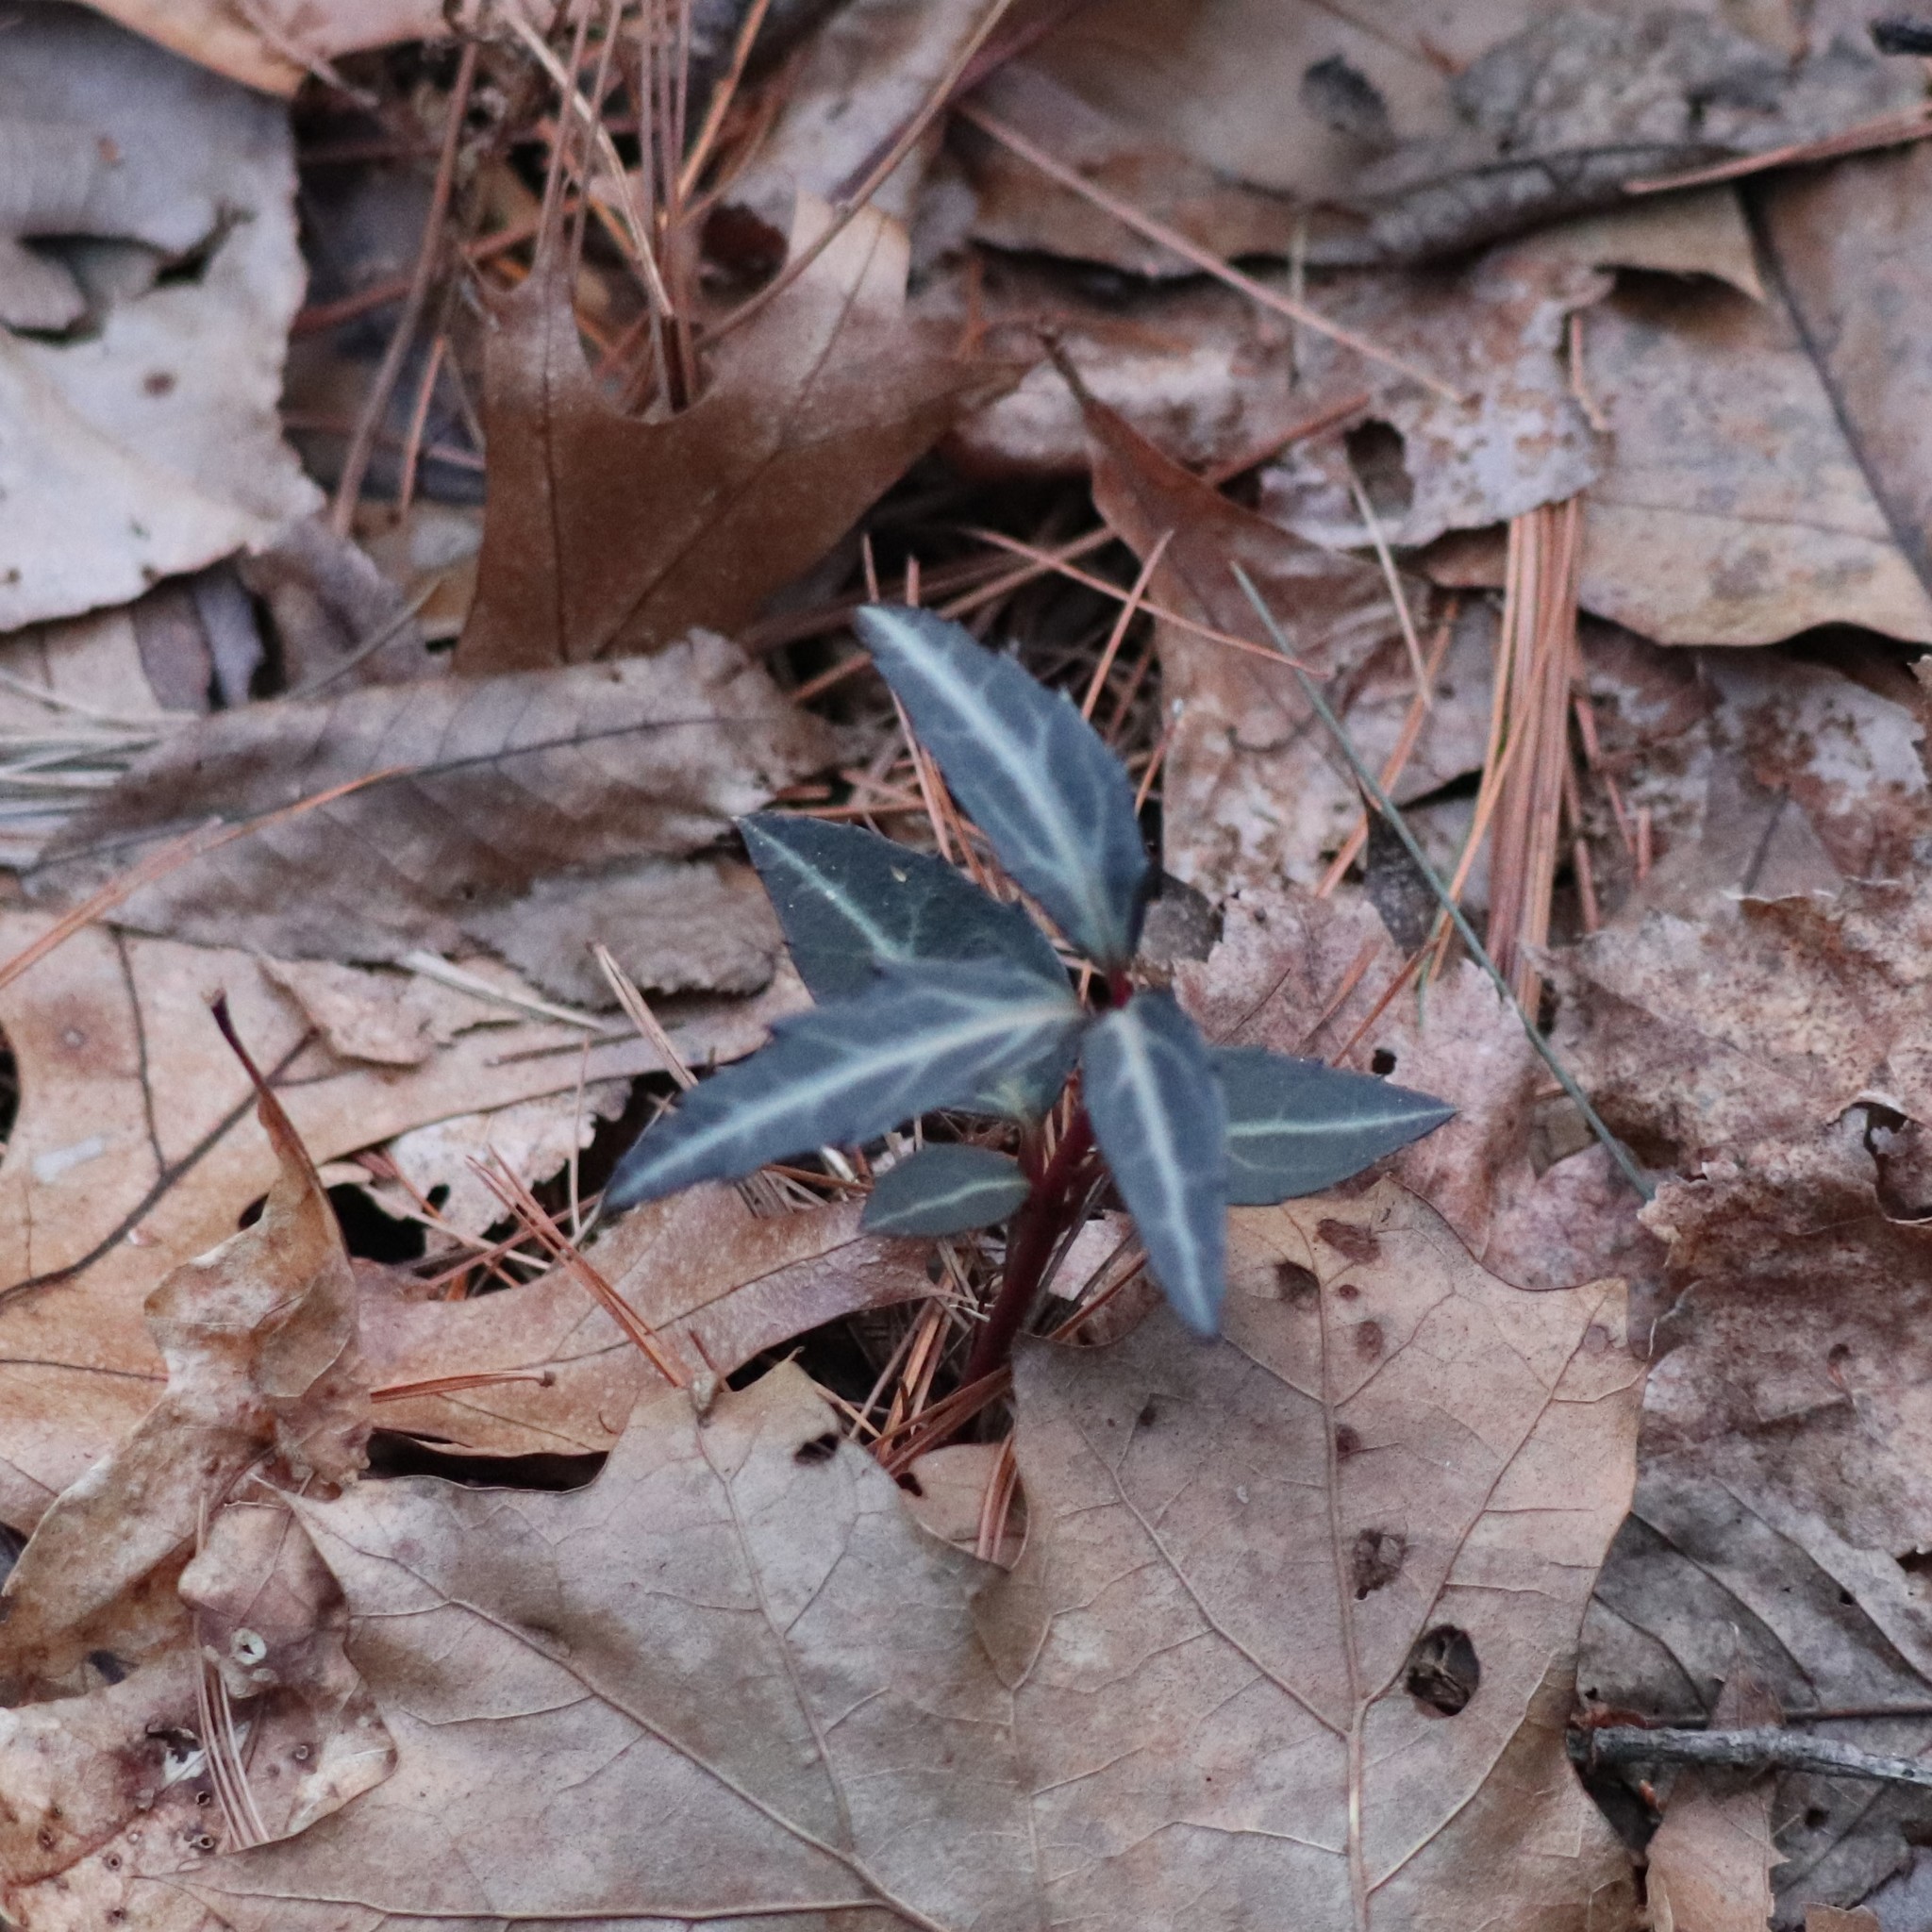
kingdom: Plantae
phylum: Tracheophyta
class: Magnoliopsida
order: Ericales
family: Ericaceae
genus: Chimaphila
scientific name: Chimaphila maculata
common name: Spotted pipsissewa
